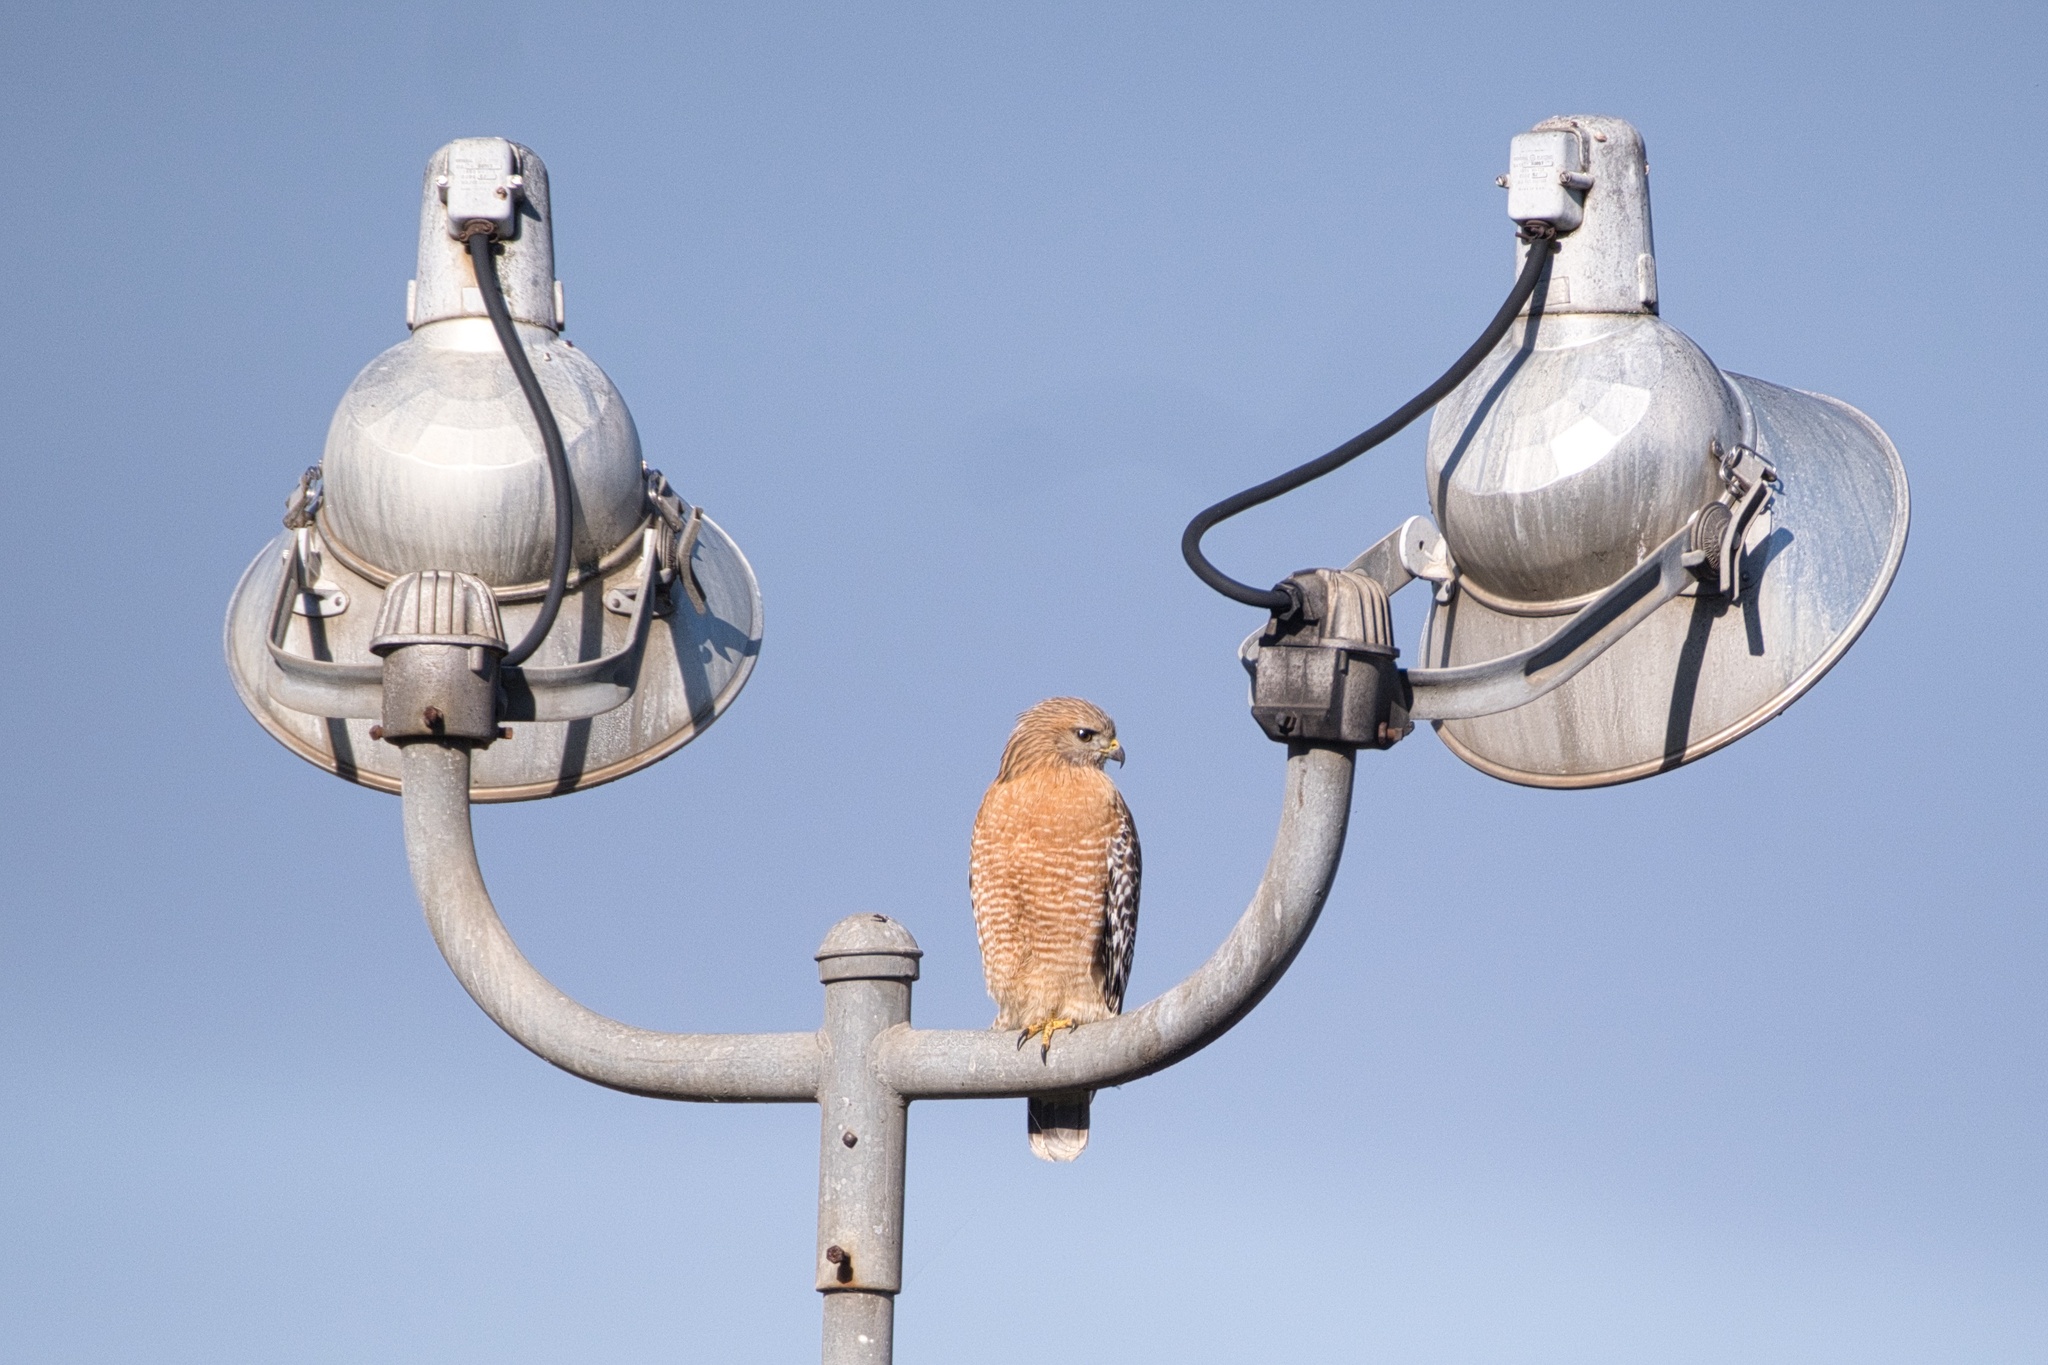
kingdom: Animalia
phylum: Chordata
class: Aves
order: Accipitriformes
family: Accipitridae
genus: Buteo
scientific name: Buteo lineatus
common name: Red-shouldered hawk
